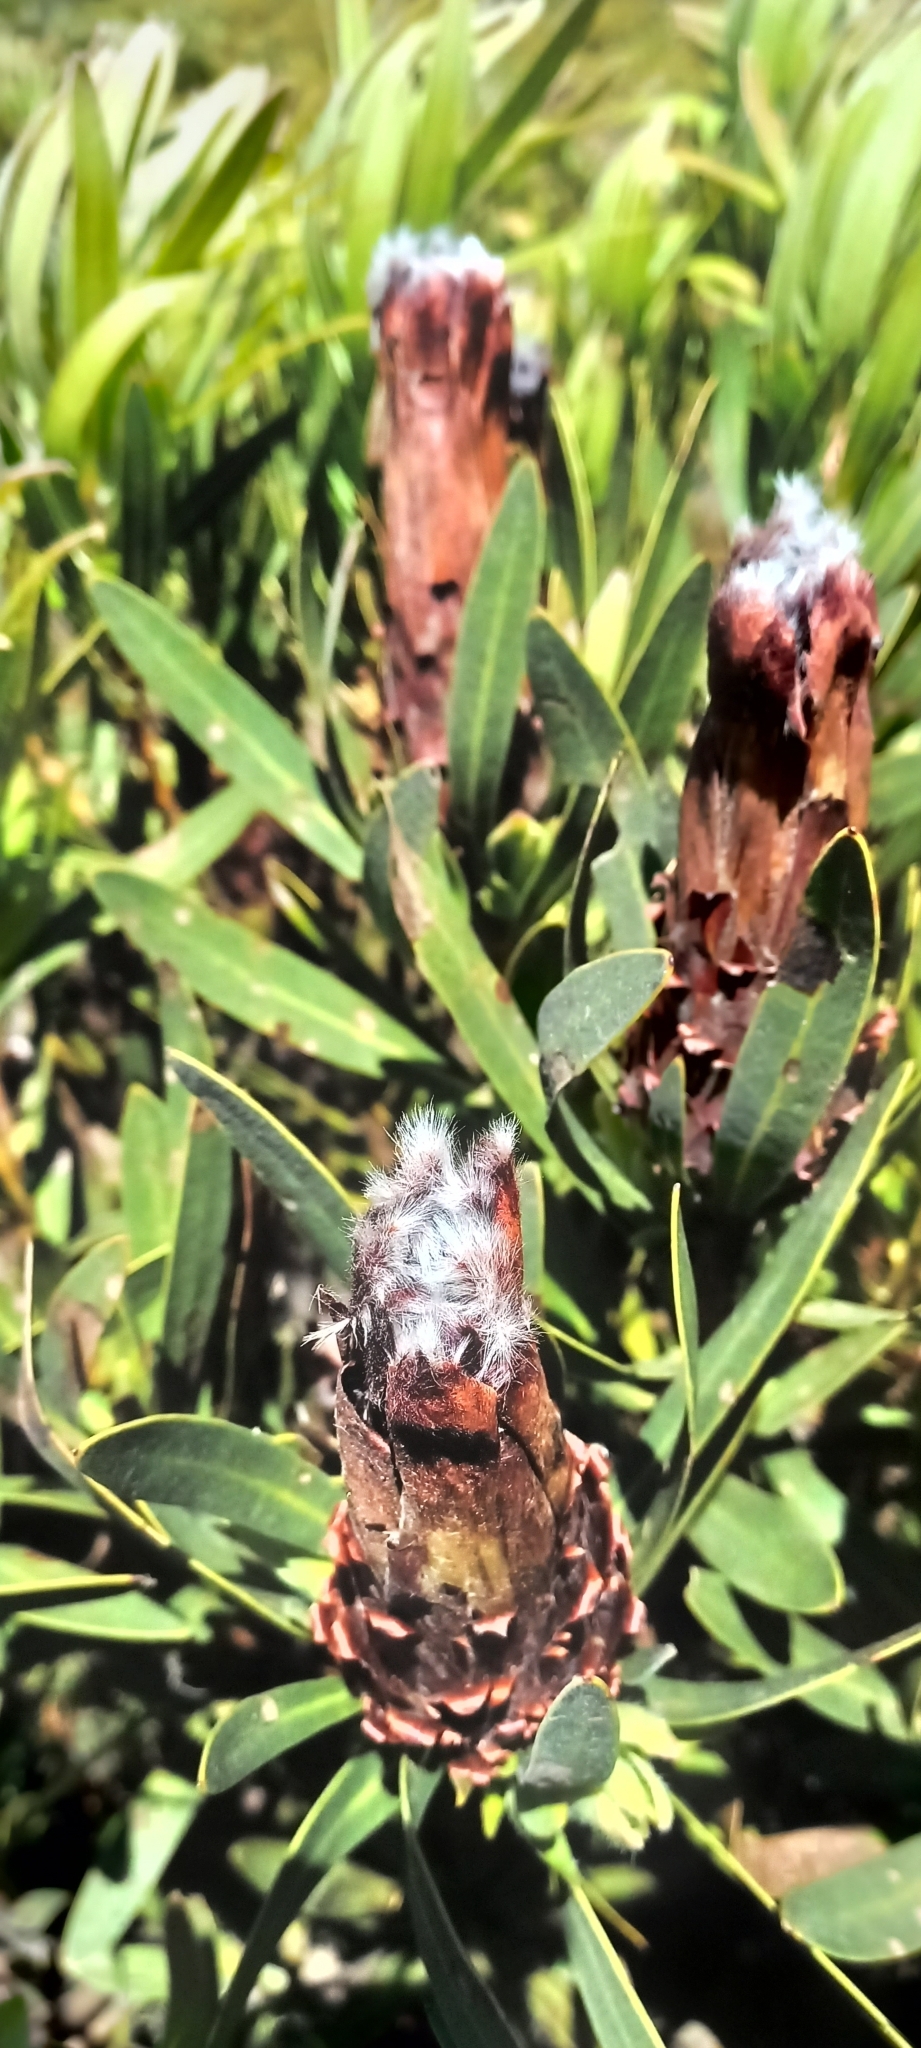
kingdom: Plantae
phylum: Tracheophyta
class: Magnoliopsida
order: Proteales
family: Proteaceae
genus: Protea
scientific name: Protea lepidocarpodendron
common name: Black-bearded protea
